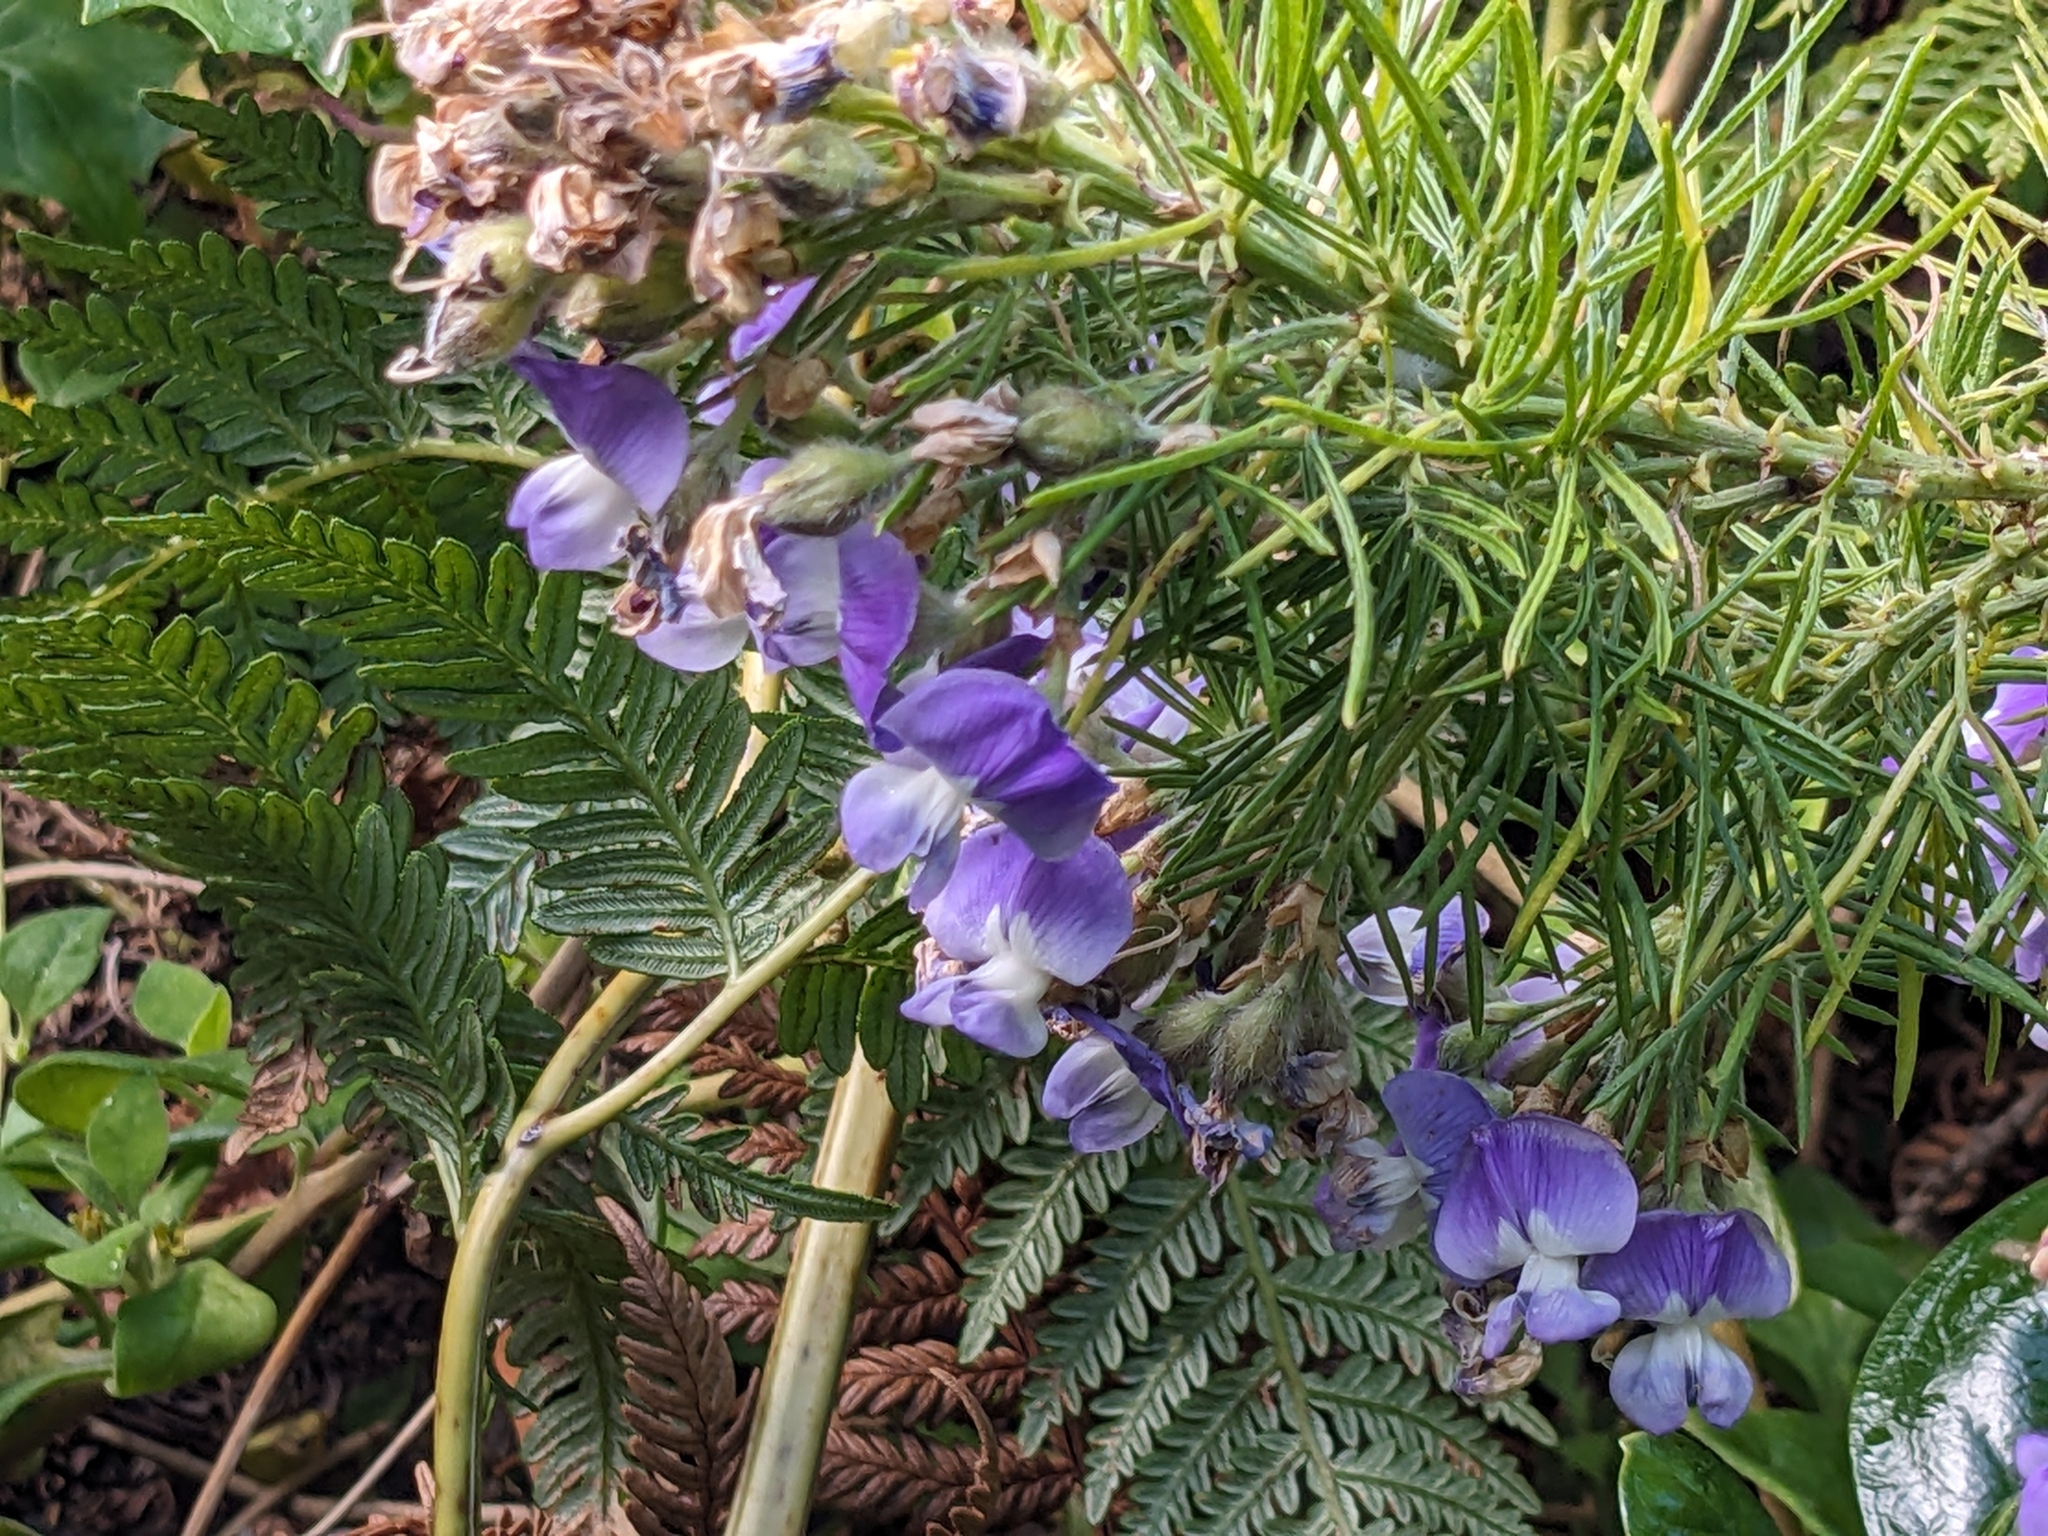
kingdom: Plantae
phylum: Tracheophyta
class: Magnoliopsida
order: Fabales
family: Fabaceae
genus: Psoralea
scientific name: Psoralea arborea
